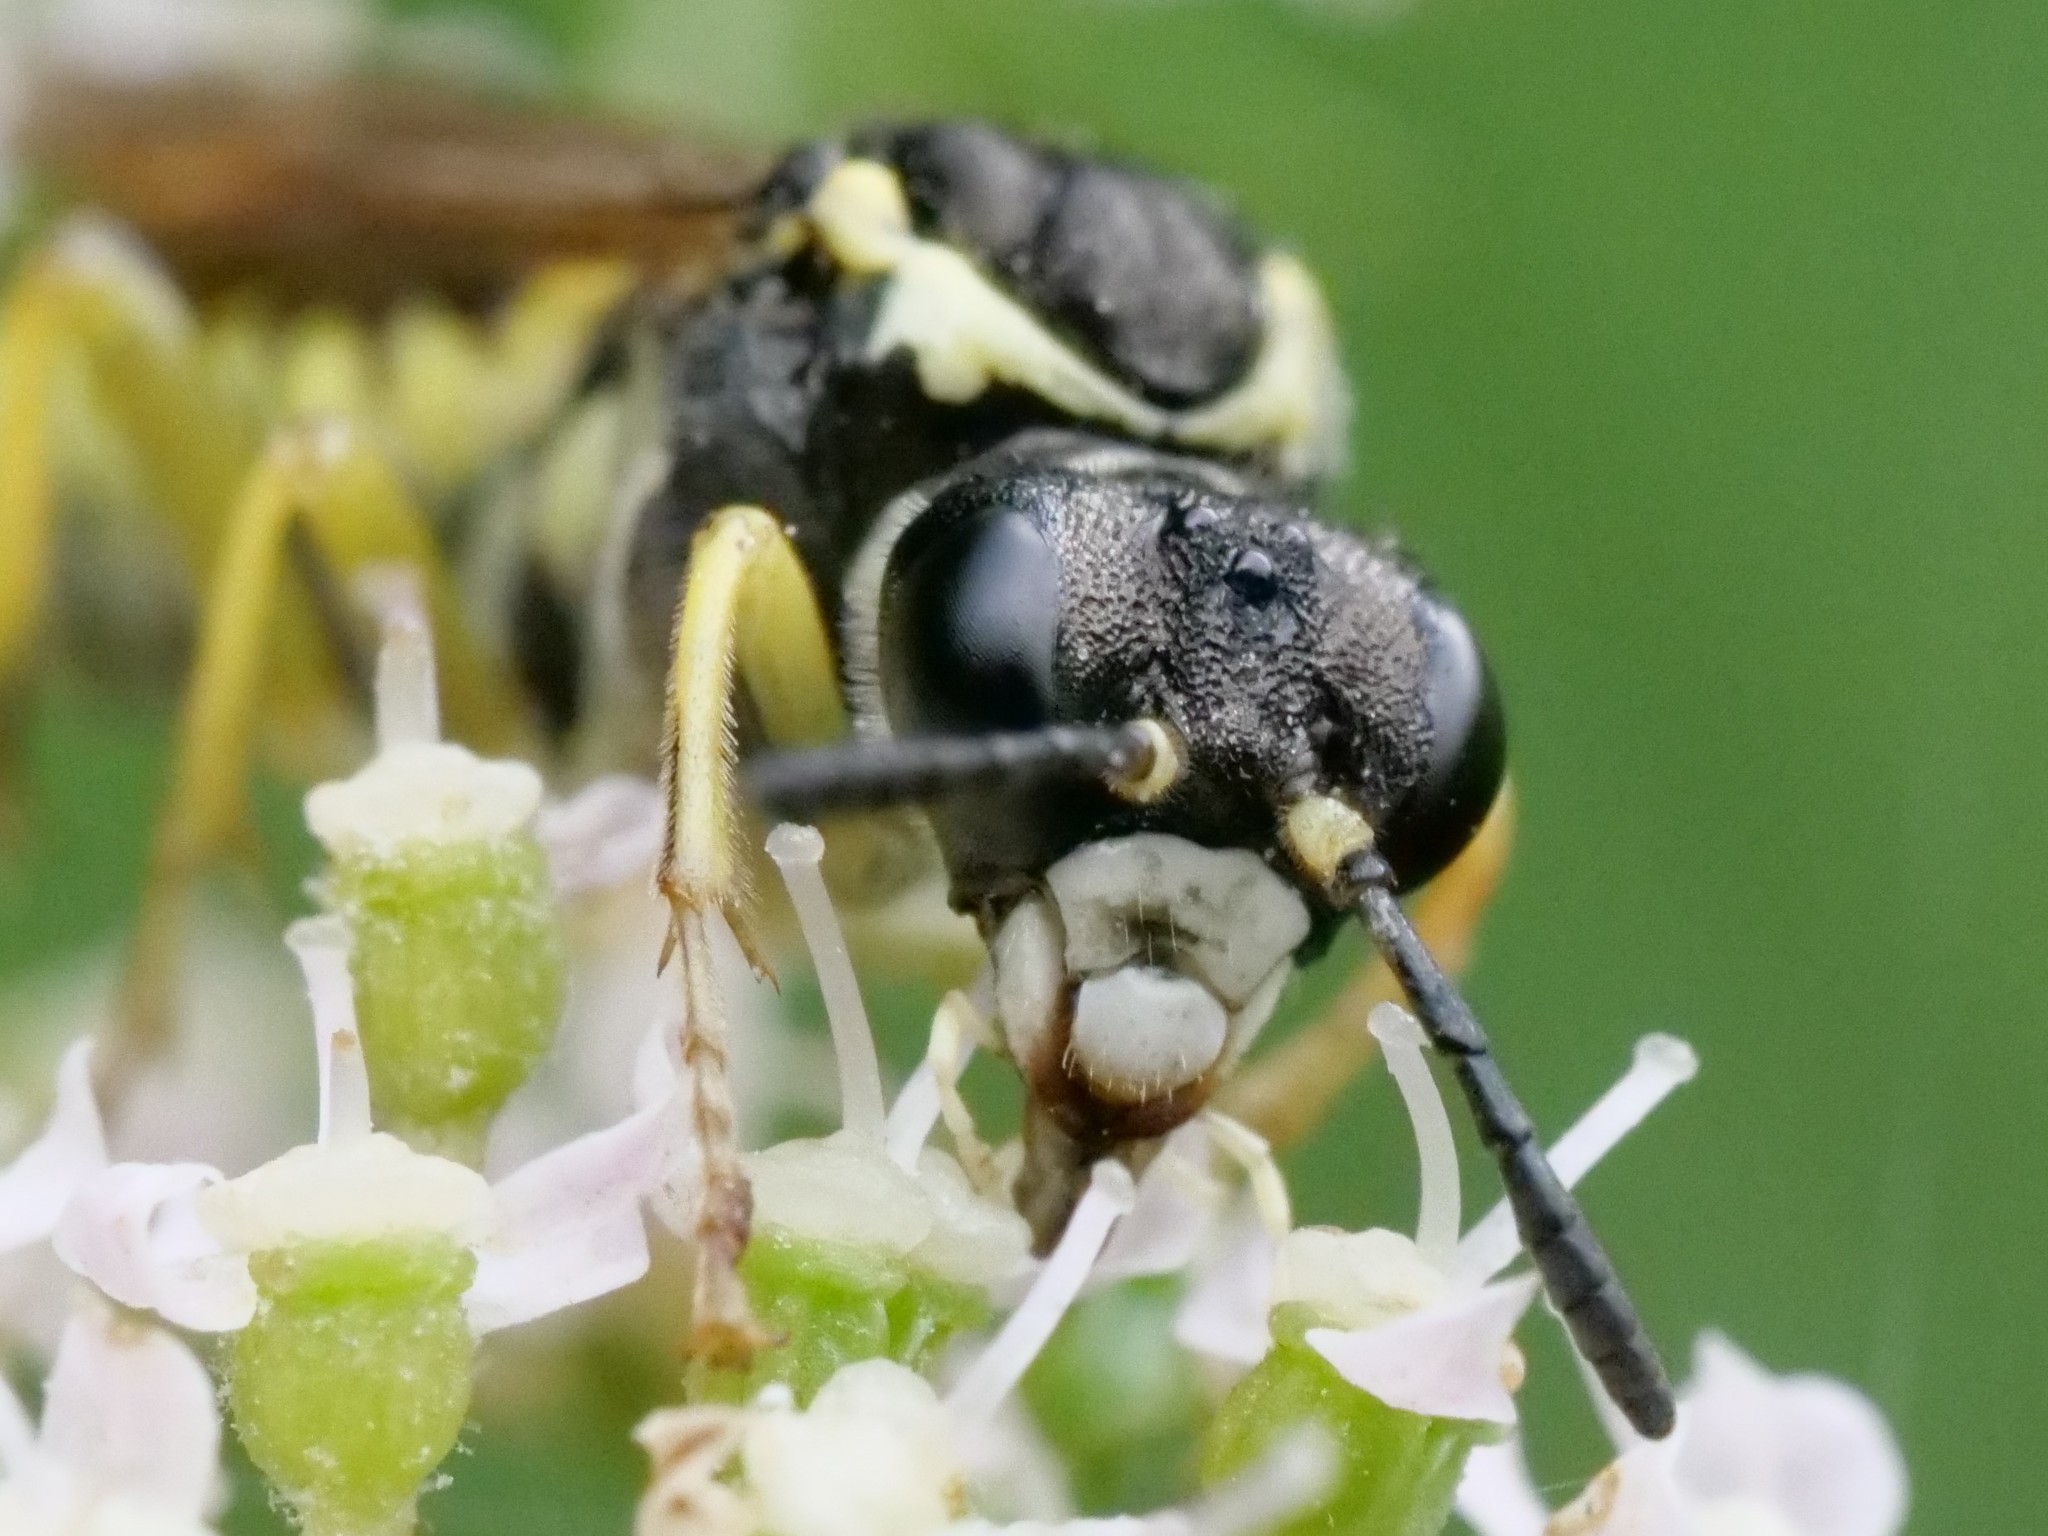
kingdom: Animalia
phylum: Arthropoda
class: Insecta
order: Hymenoptera
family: Tenthredinidae
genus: Tenthredo
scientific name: Tenthredo notha
